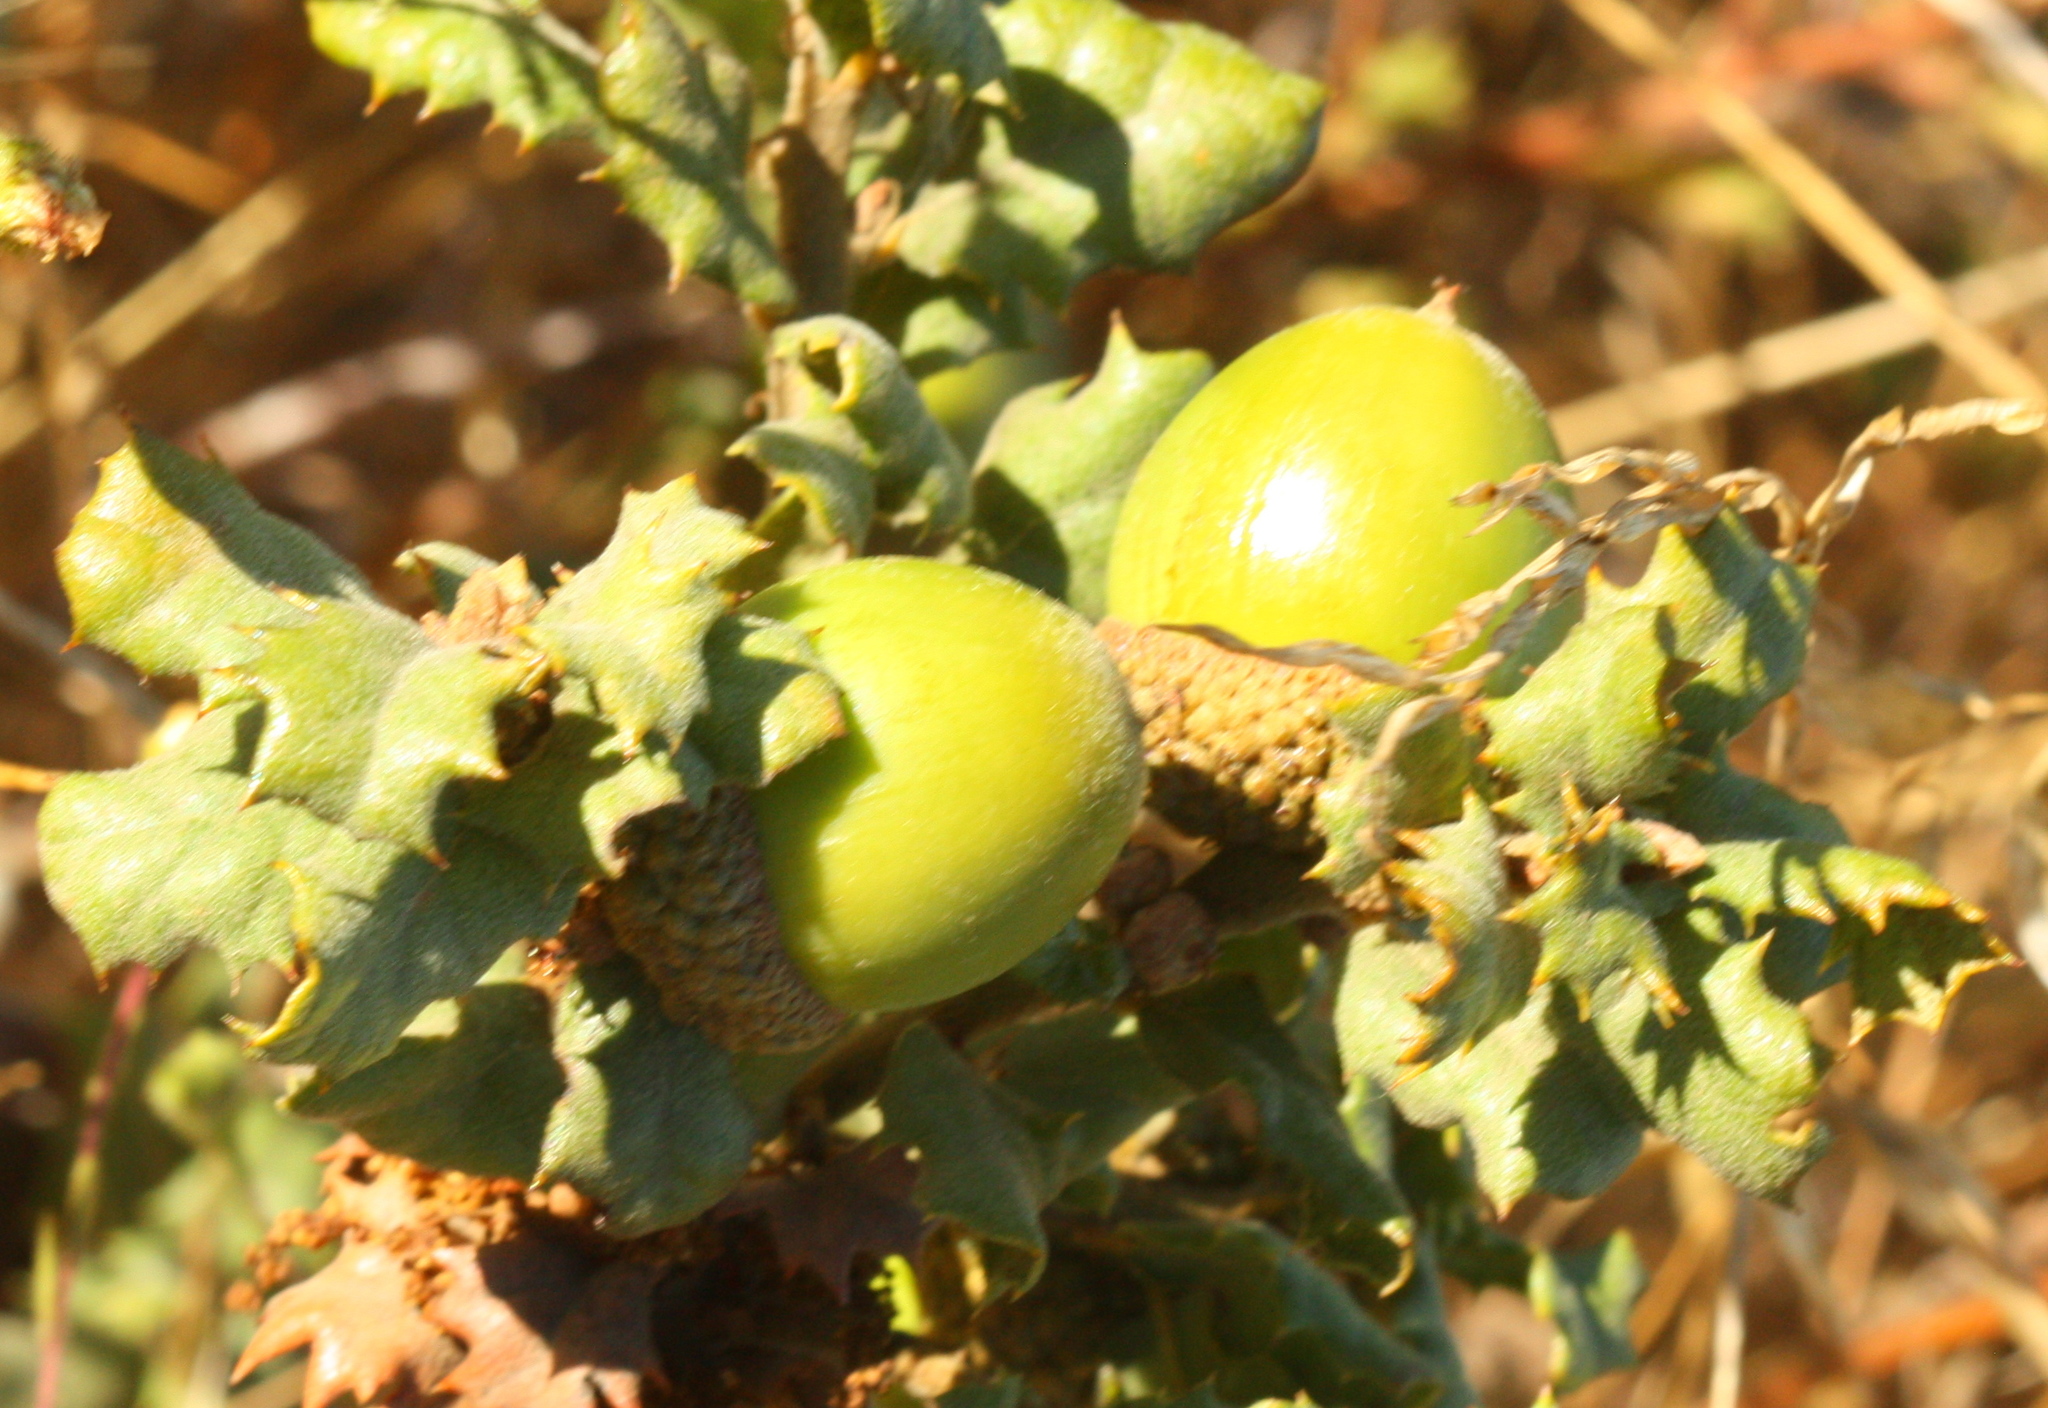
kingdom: Plantae
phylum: Tracheophyta
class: Magnoliopsida
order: Fagales
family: Fagaceae
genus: Quercus
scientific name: Quercus durata
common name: Leather oak
